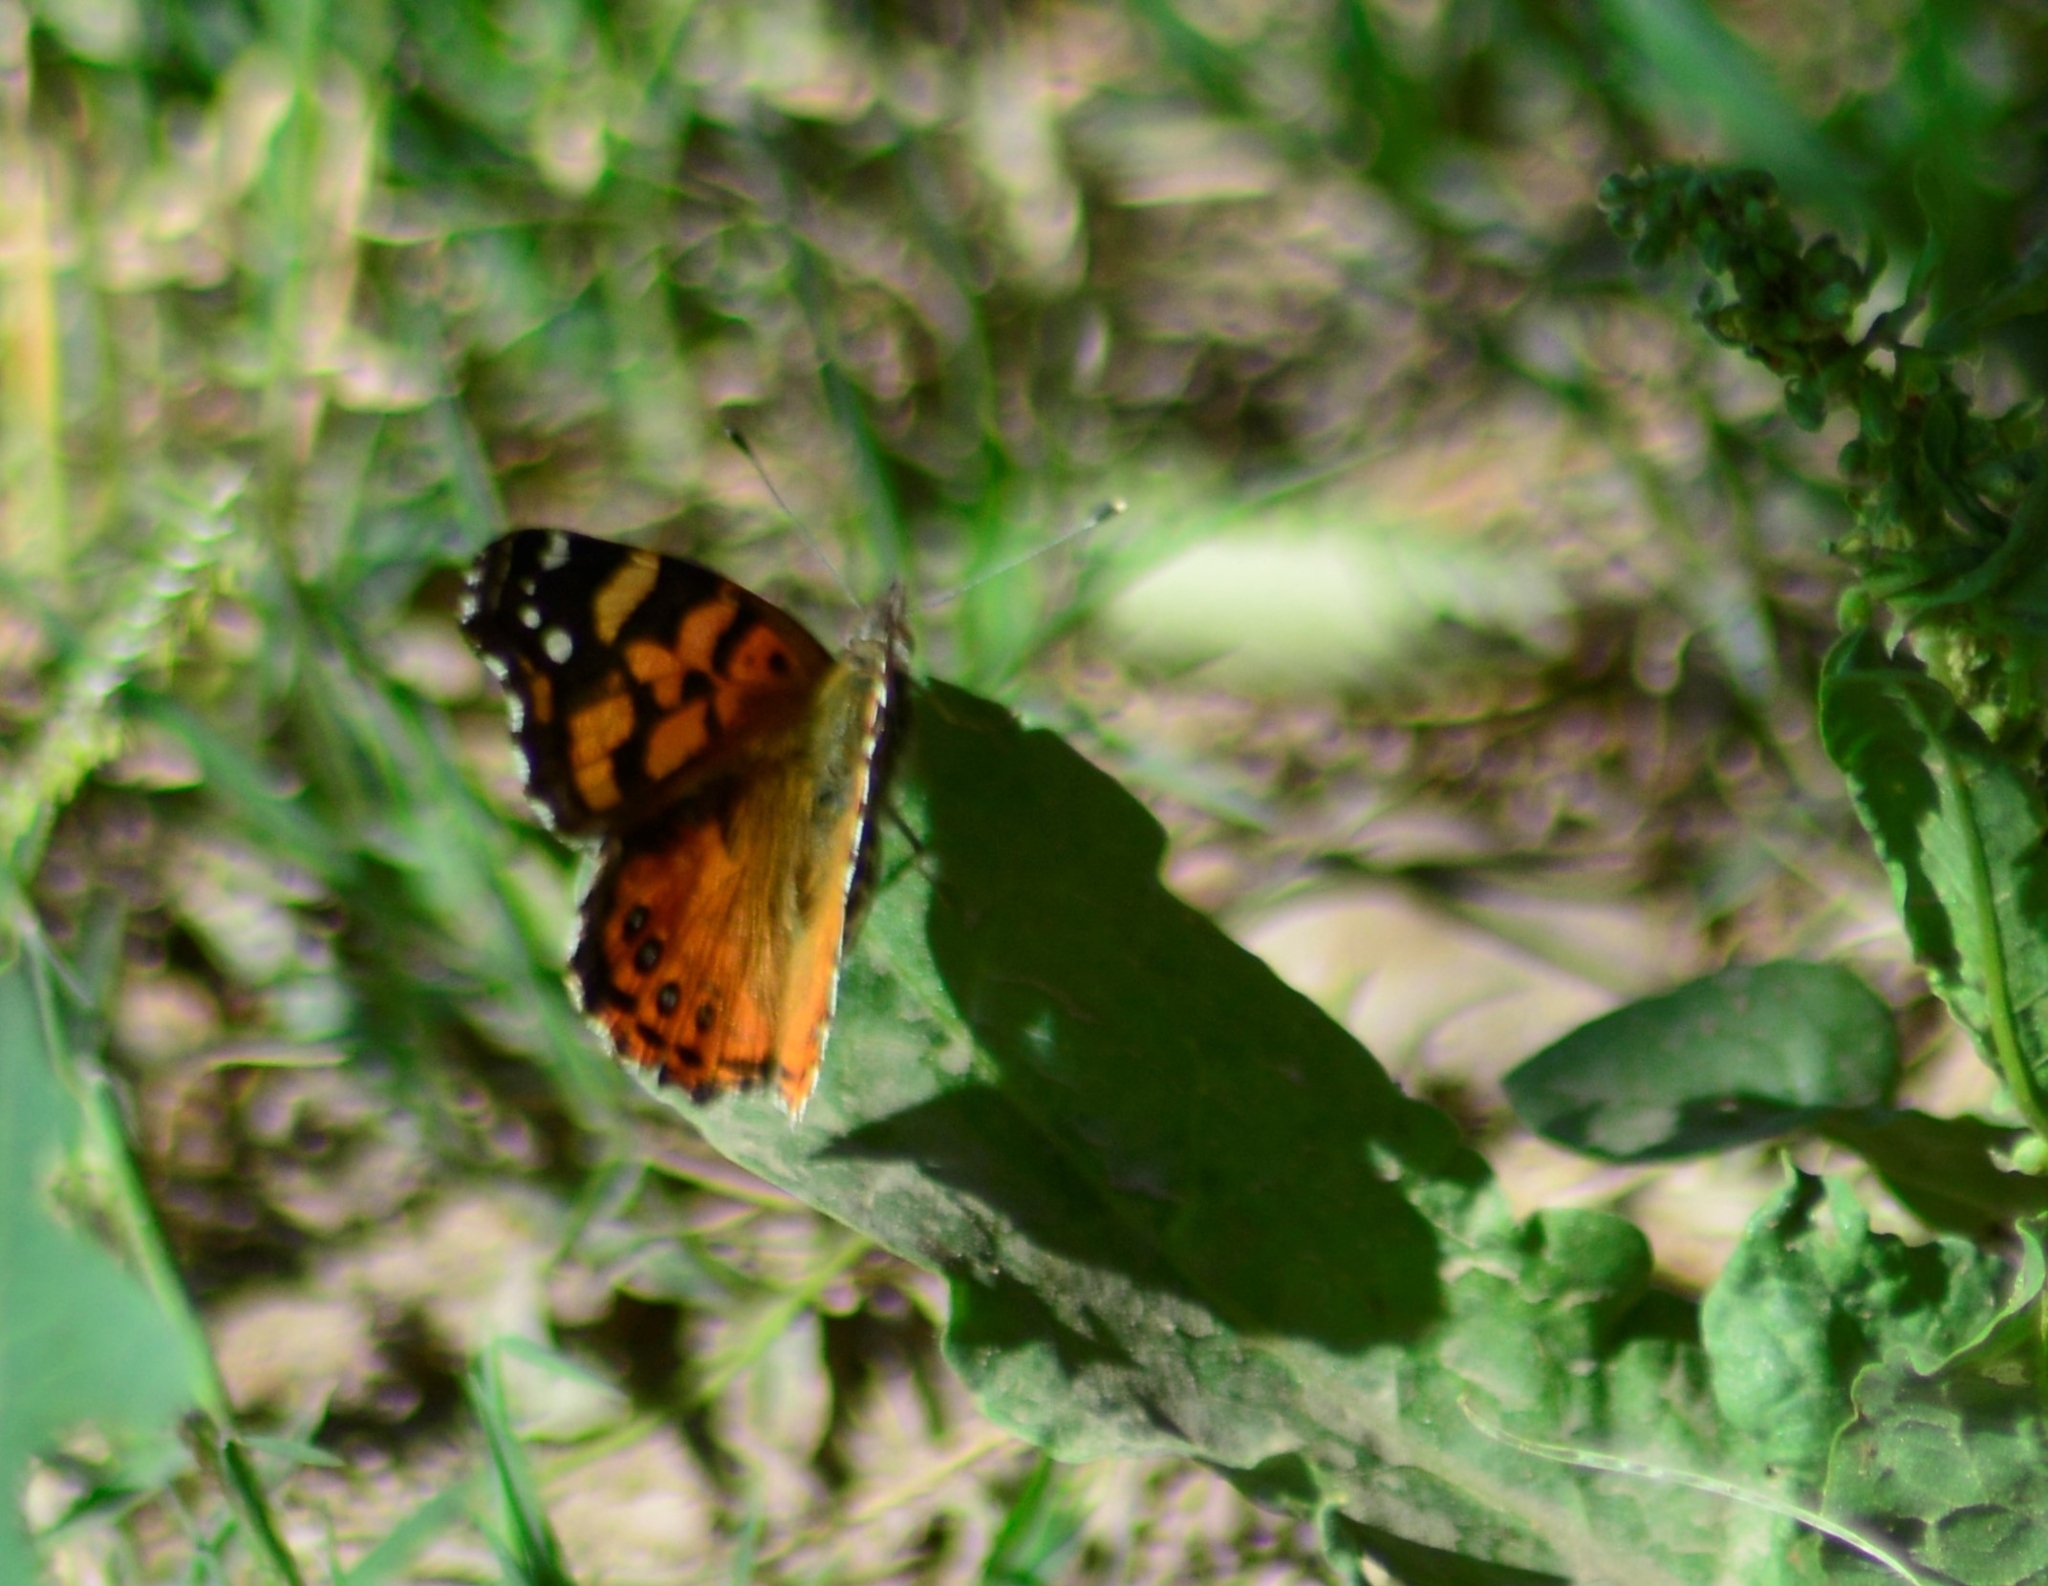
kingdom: Animalia
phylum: Arthropoda
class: Insecta
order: Lepidoptera
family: Nymphalidae
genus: Vanessa
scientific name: Vanessa carye
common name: Subtropical lady
